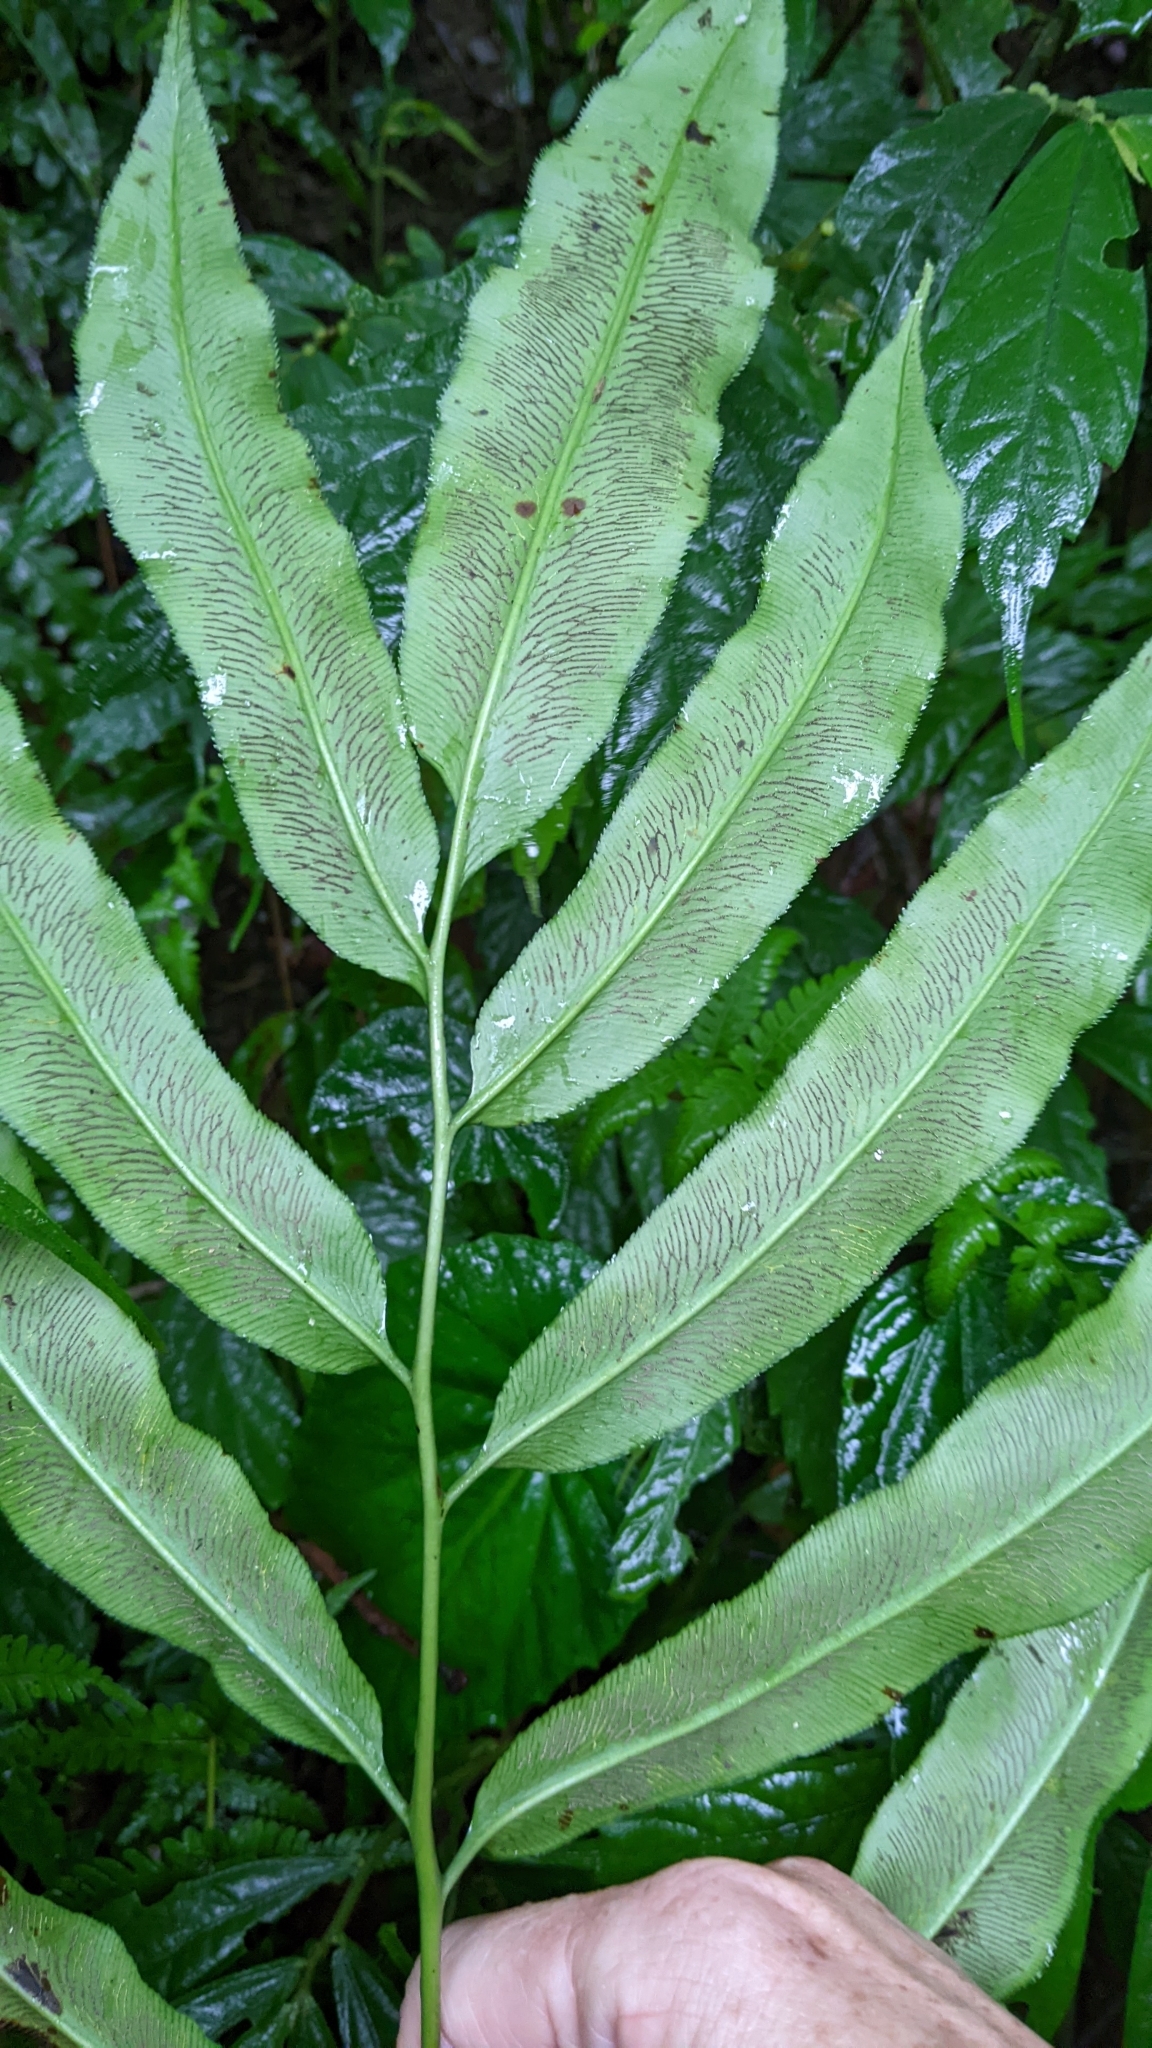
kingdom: Plantae
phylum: Tracheophyta
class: Polypodiopsida
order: Polypodiales
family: Pteridaceae
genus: Coniogramme
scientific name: Coniogramme japonica
